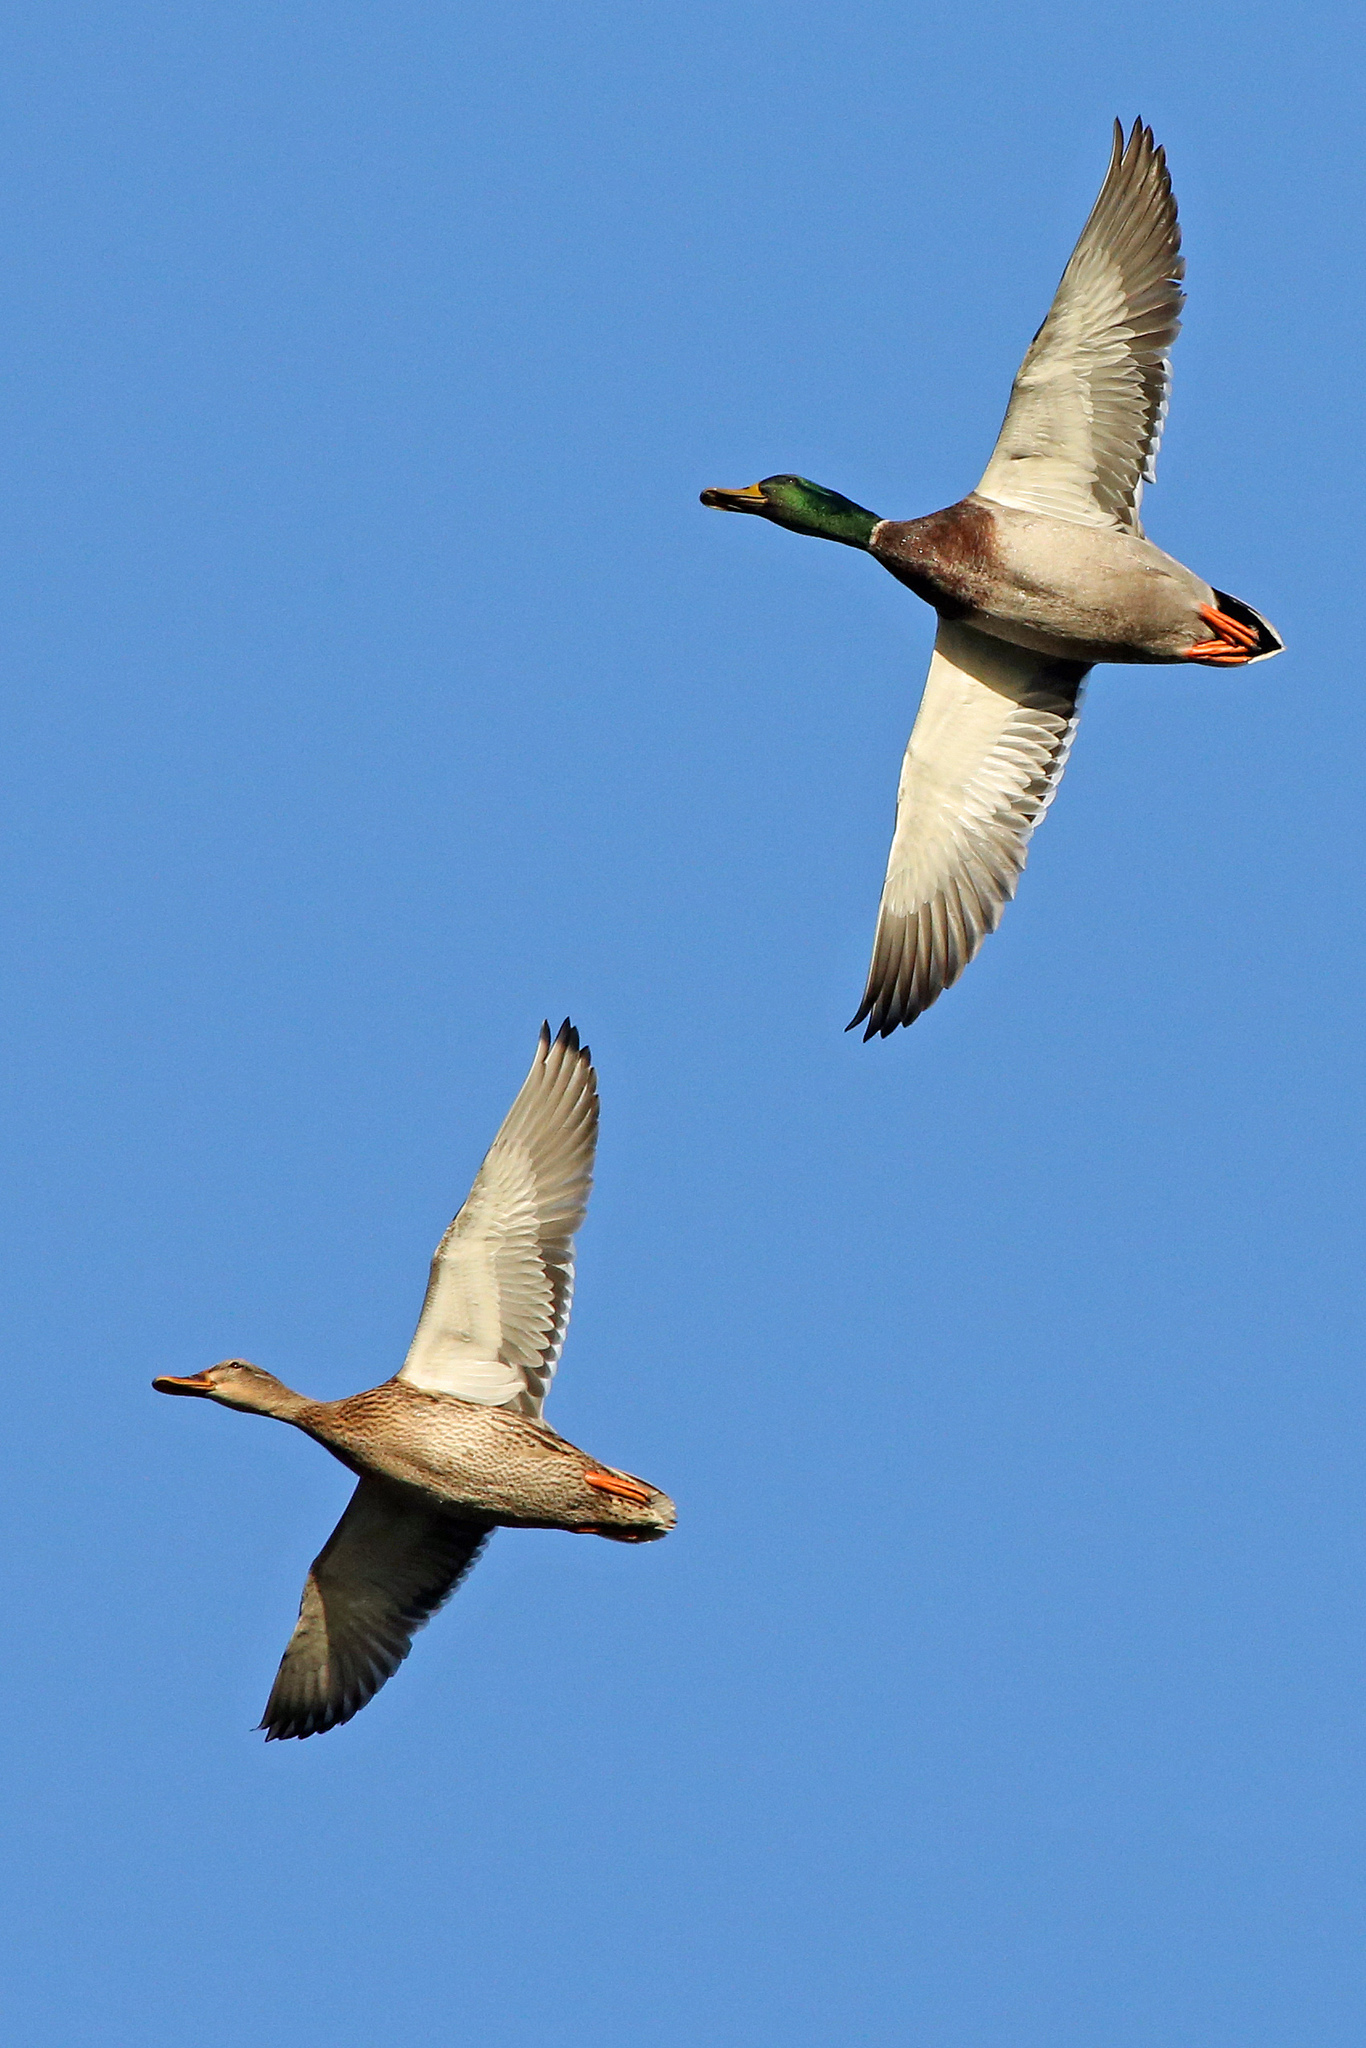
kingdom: Animalia
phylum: Chordata
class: Aves
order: Anseriformes
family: Anatidae
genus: Anas
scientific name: Anas platyrhynchos
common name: Mallard
